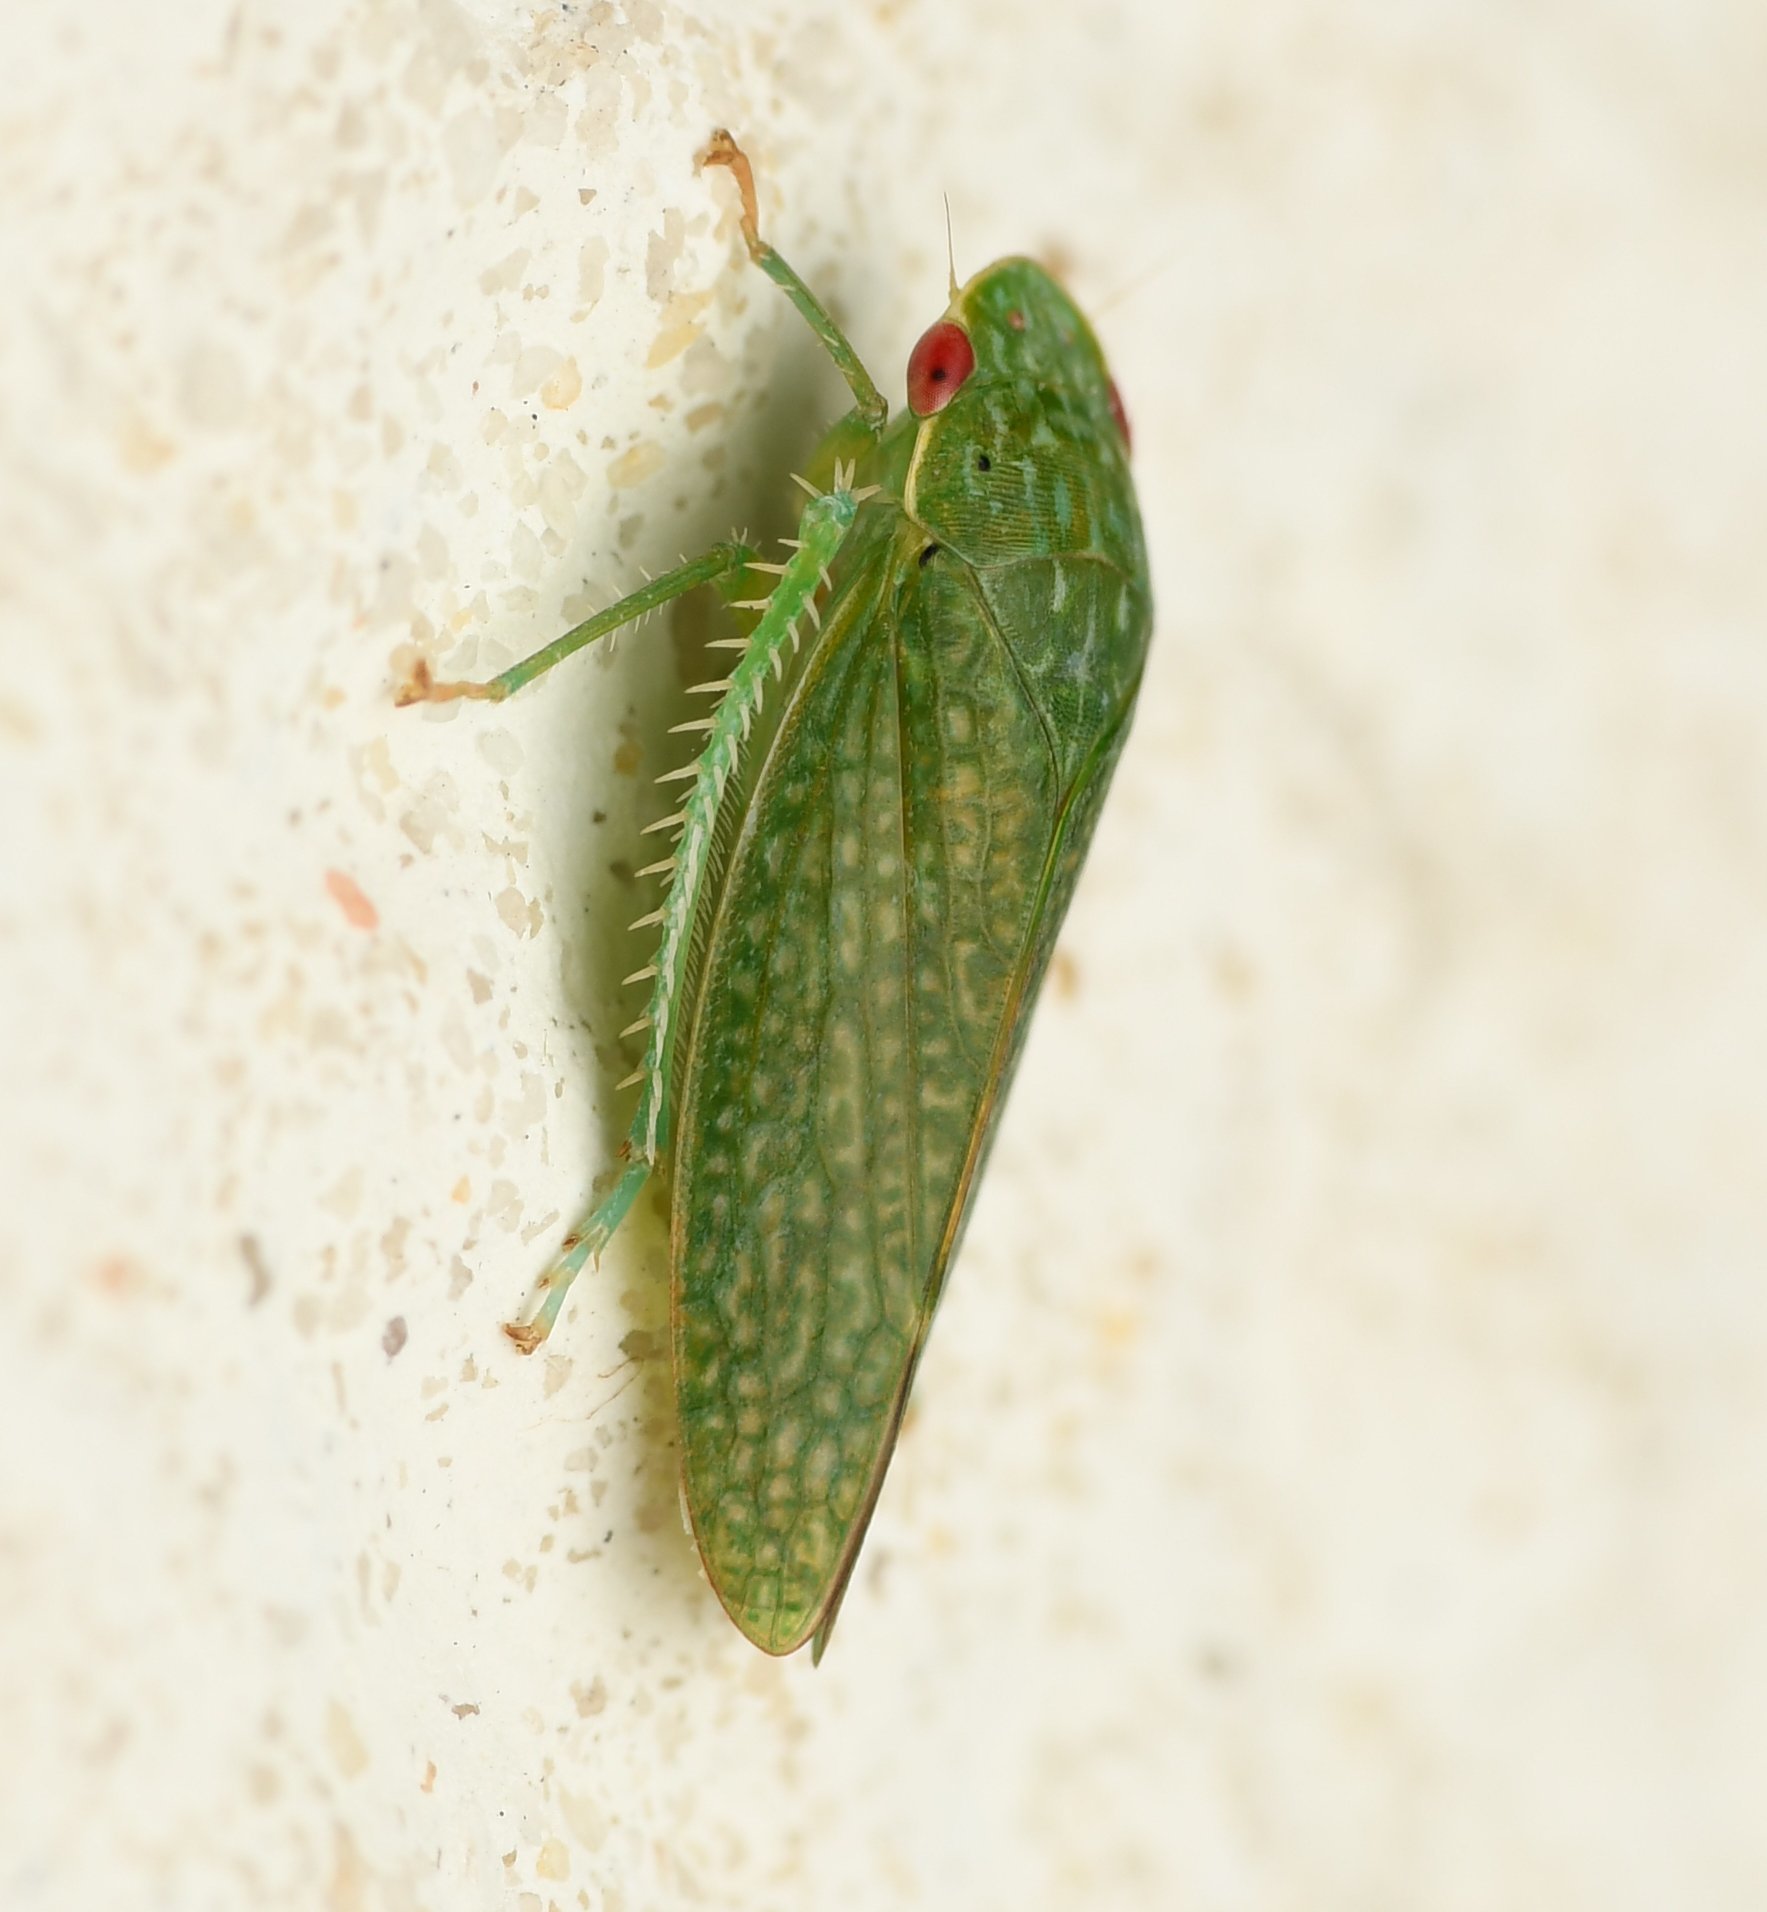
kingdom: Animalia
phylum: Arthropoda
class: Insecta
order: Hemiptera
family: Cicadellidae
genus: Rugosana
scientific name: Rugosana querci
